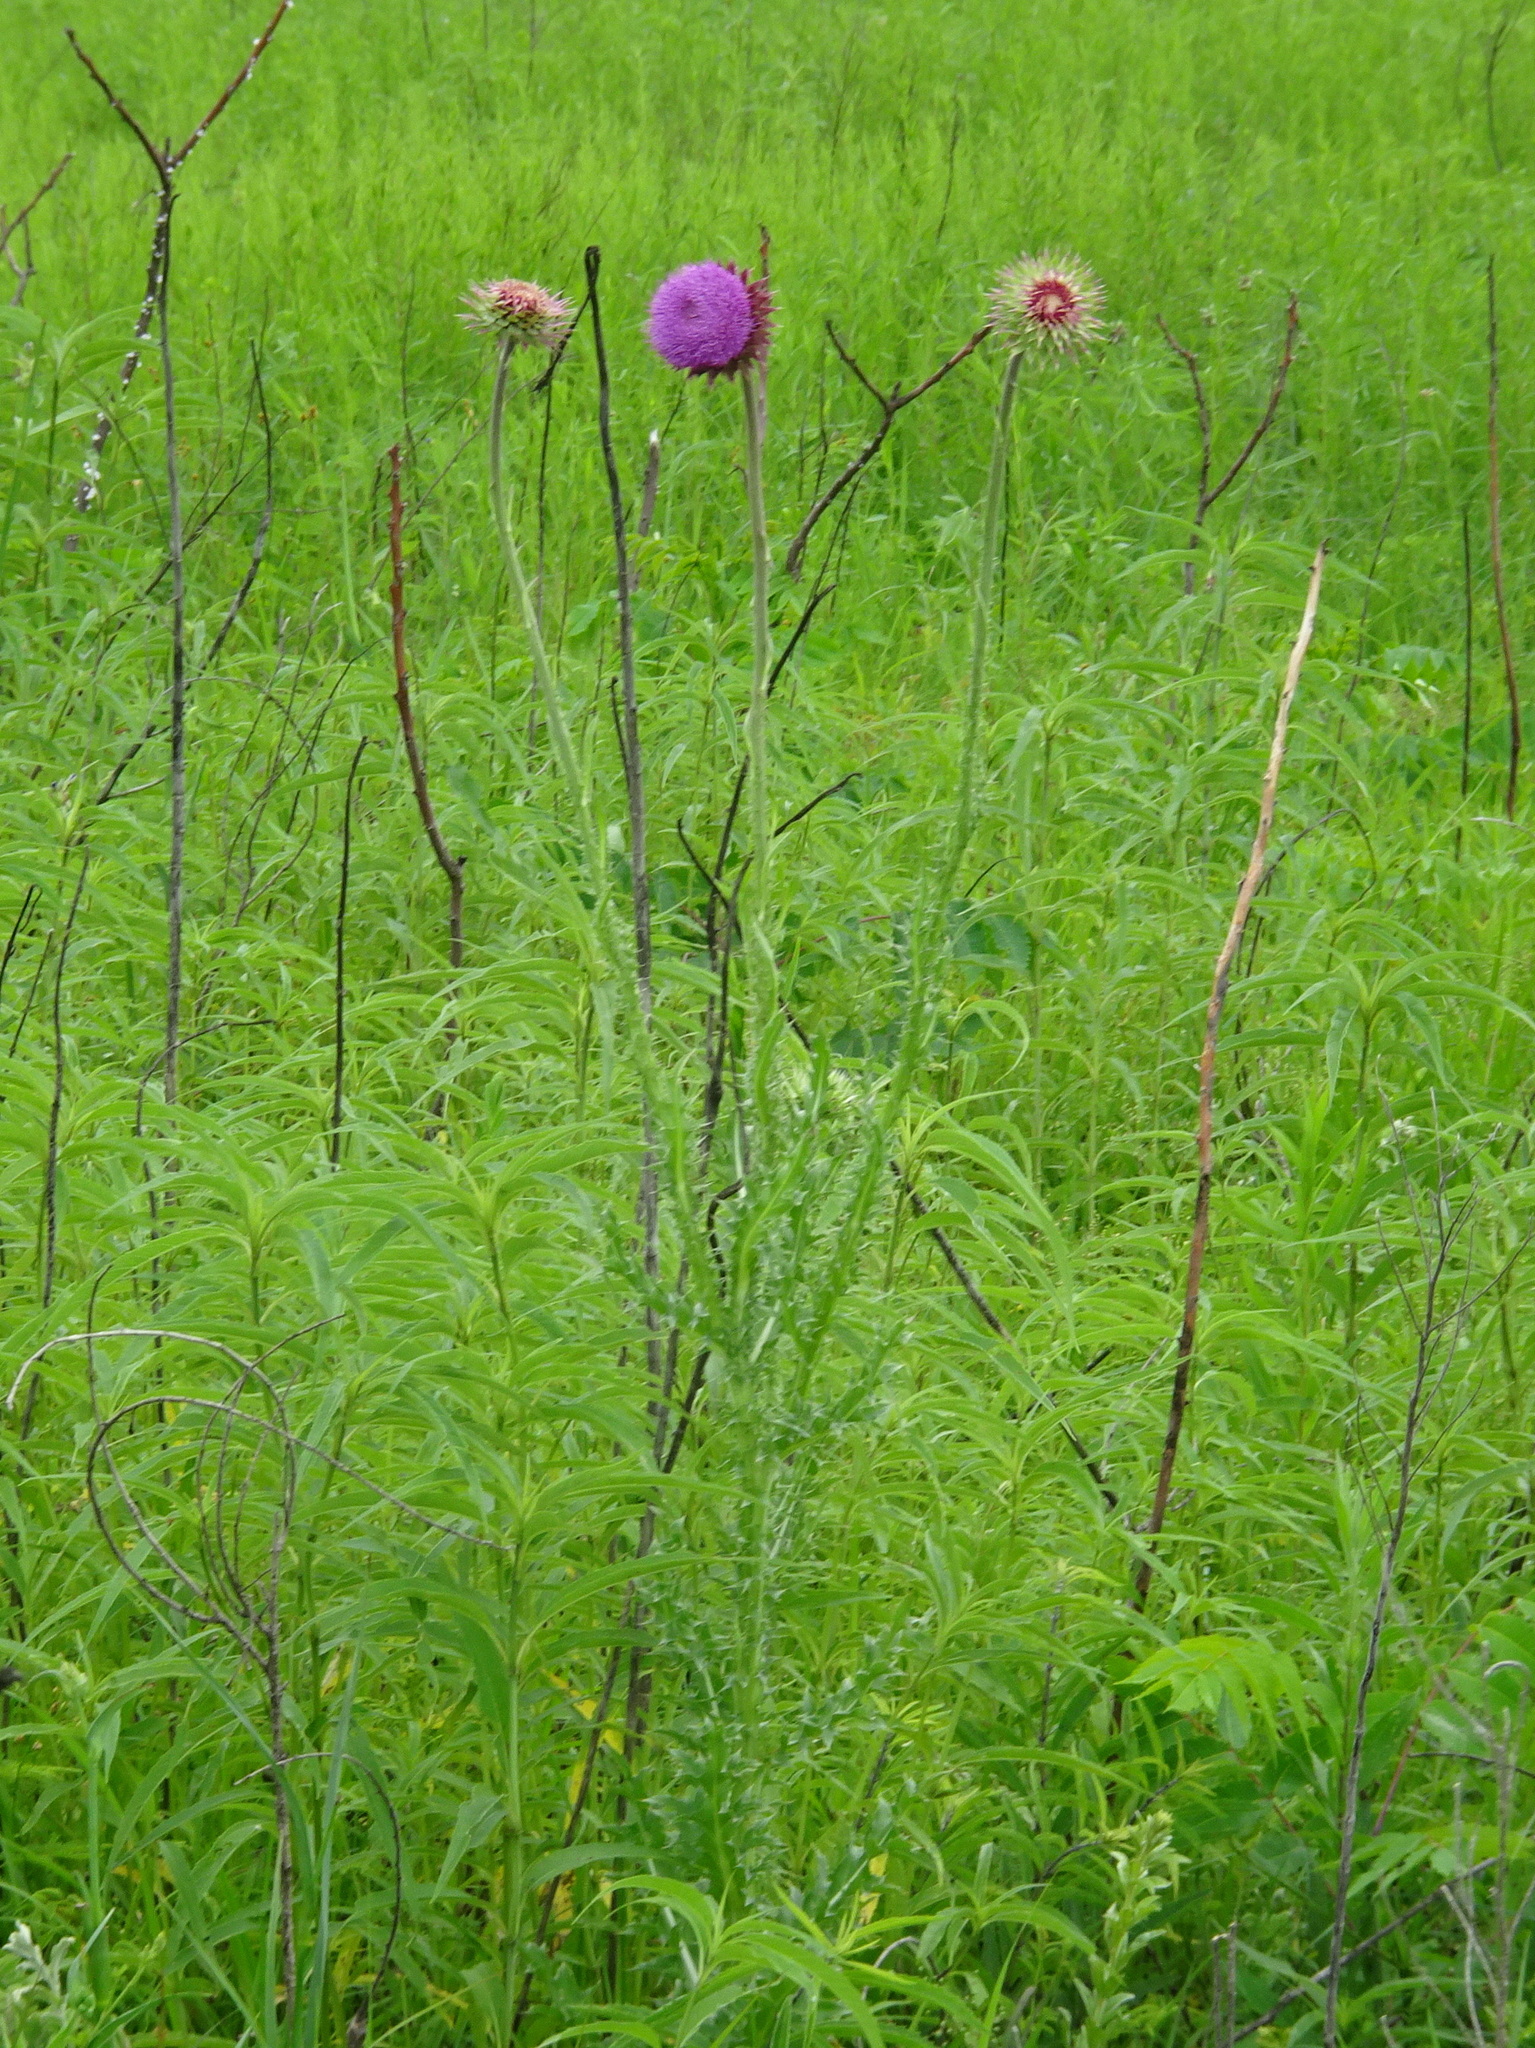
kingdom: Plantae
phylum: Tracheophyta
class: Magnoliopsida
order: Asterales
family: Asteraceae
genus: Carduus
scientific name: Carduus nutans
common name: Musk thistle
